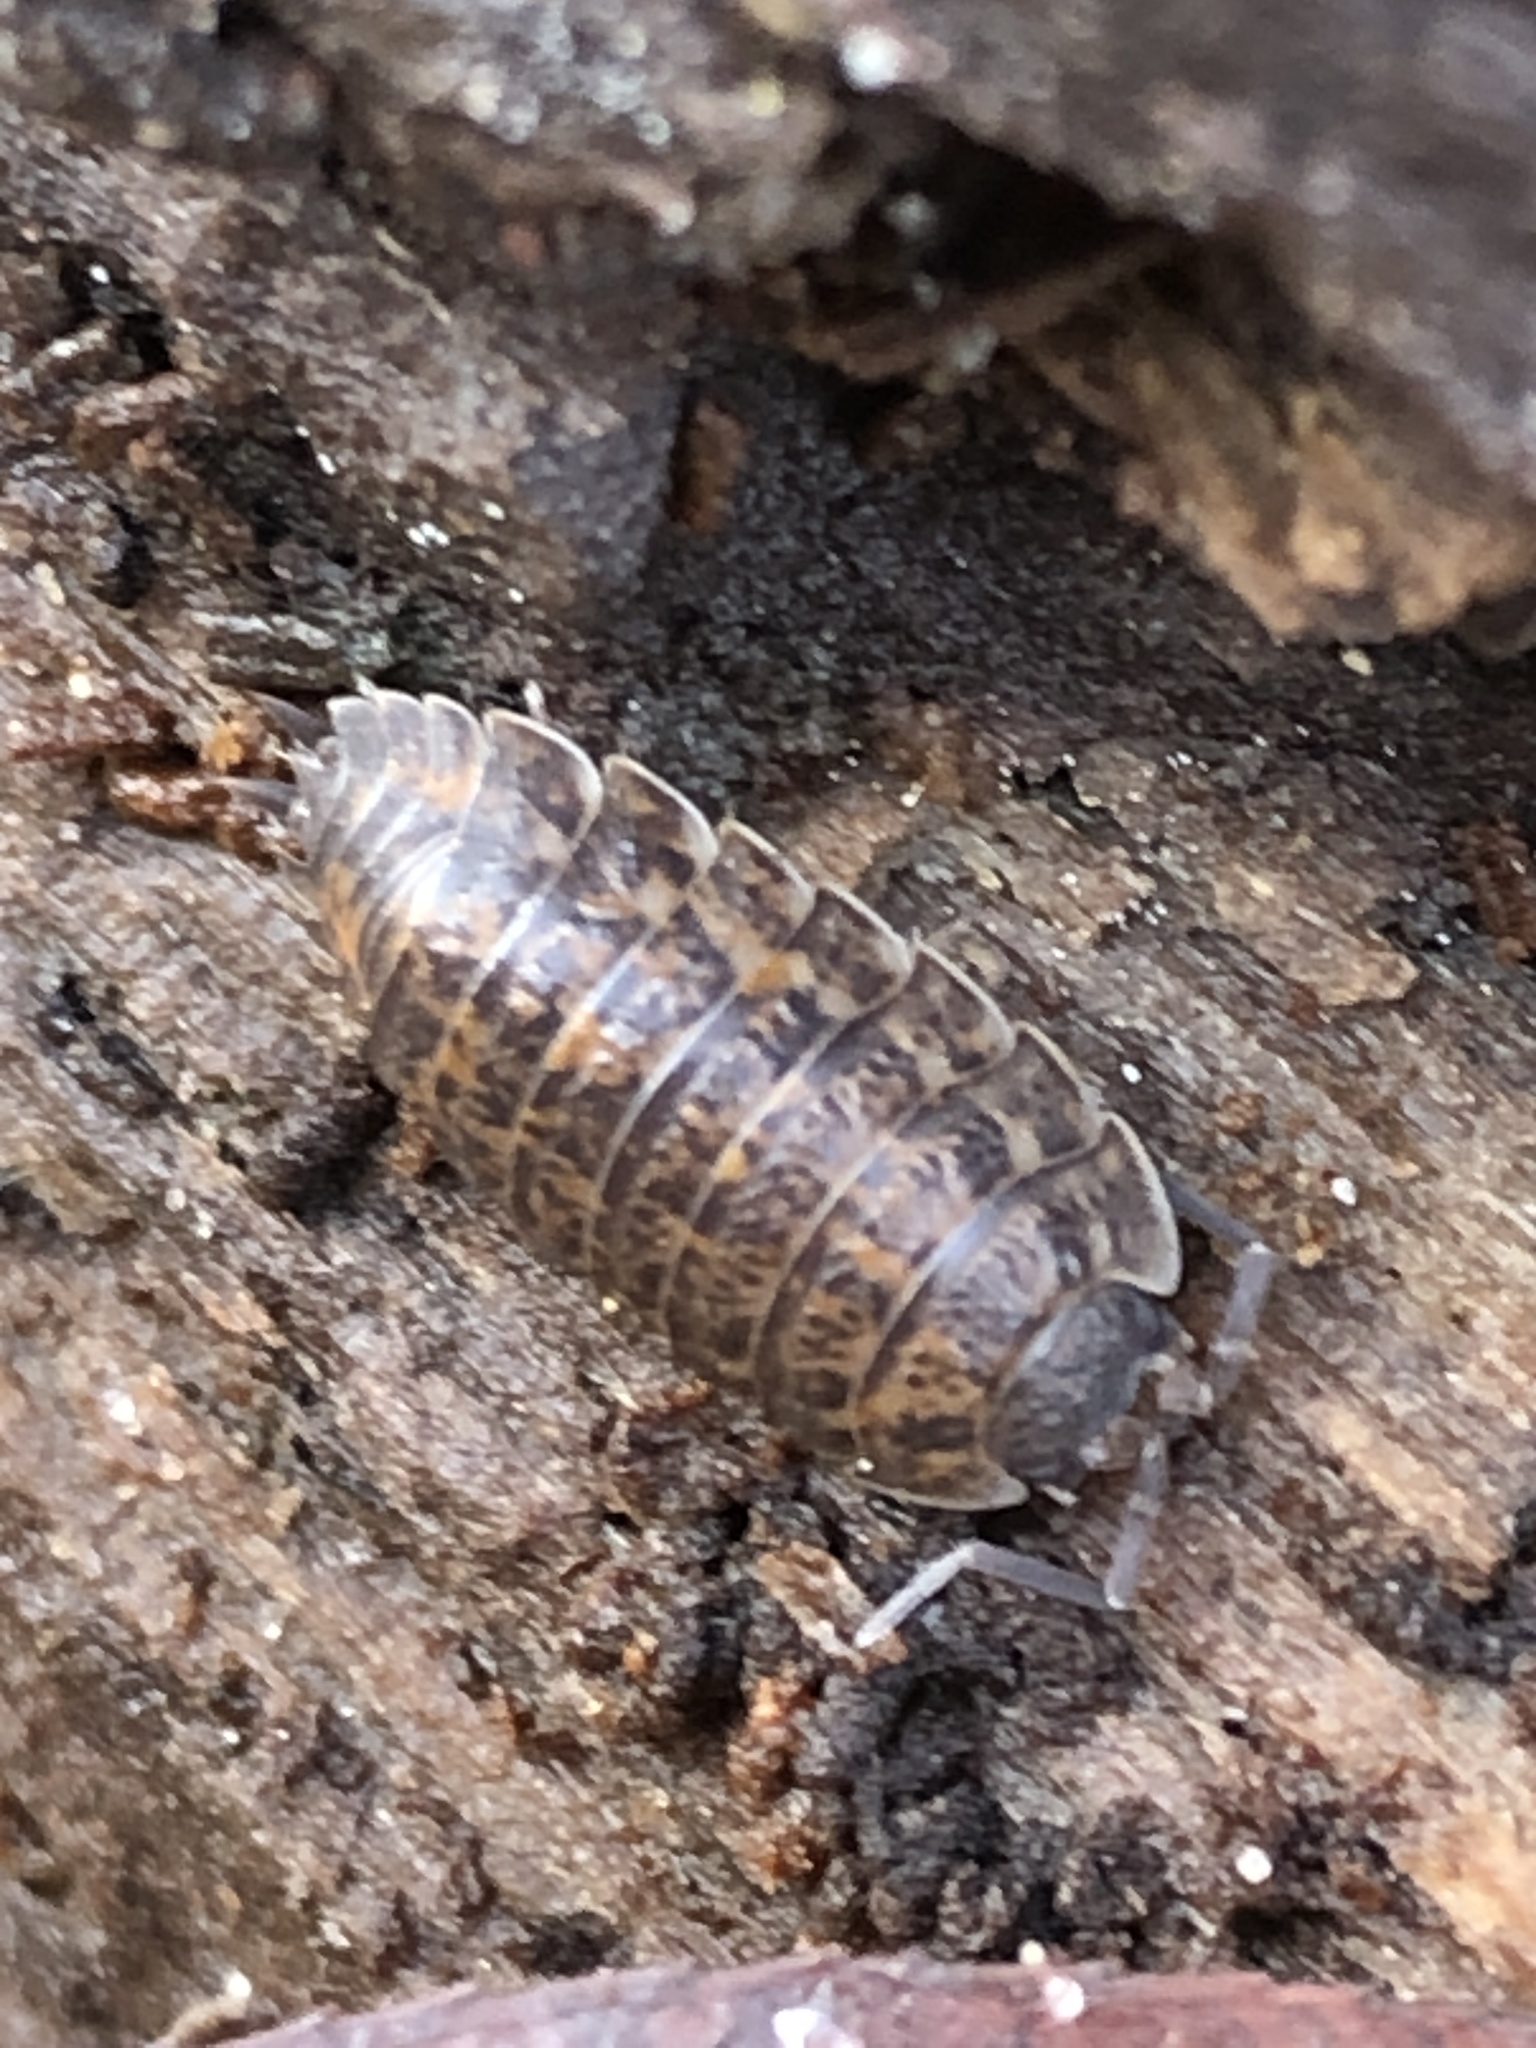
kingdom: Animalia
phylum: Arthropoda
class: Malacostraca
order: Isopoda
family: Trachelipodidae
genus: Trachelipus
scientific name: Trachelipus rathkii
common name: Isopod
